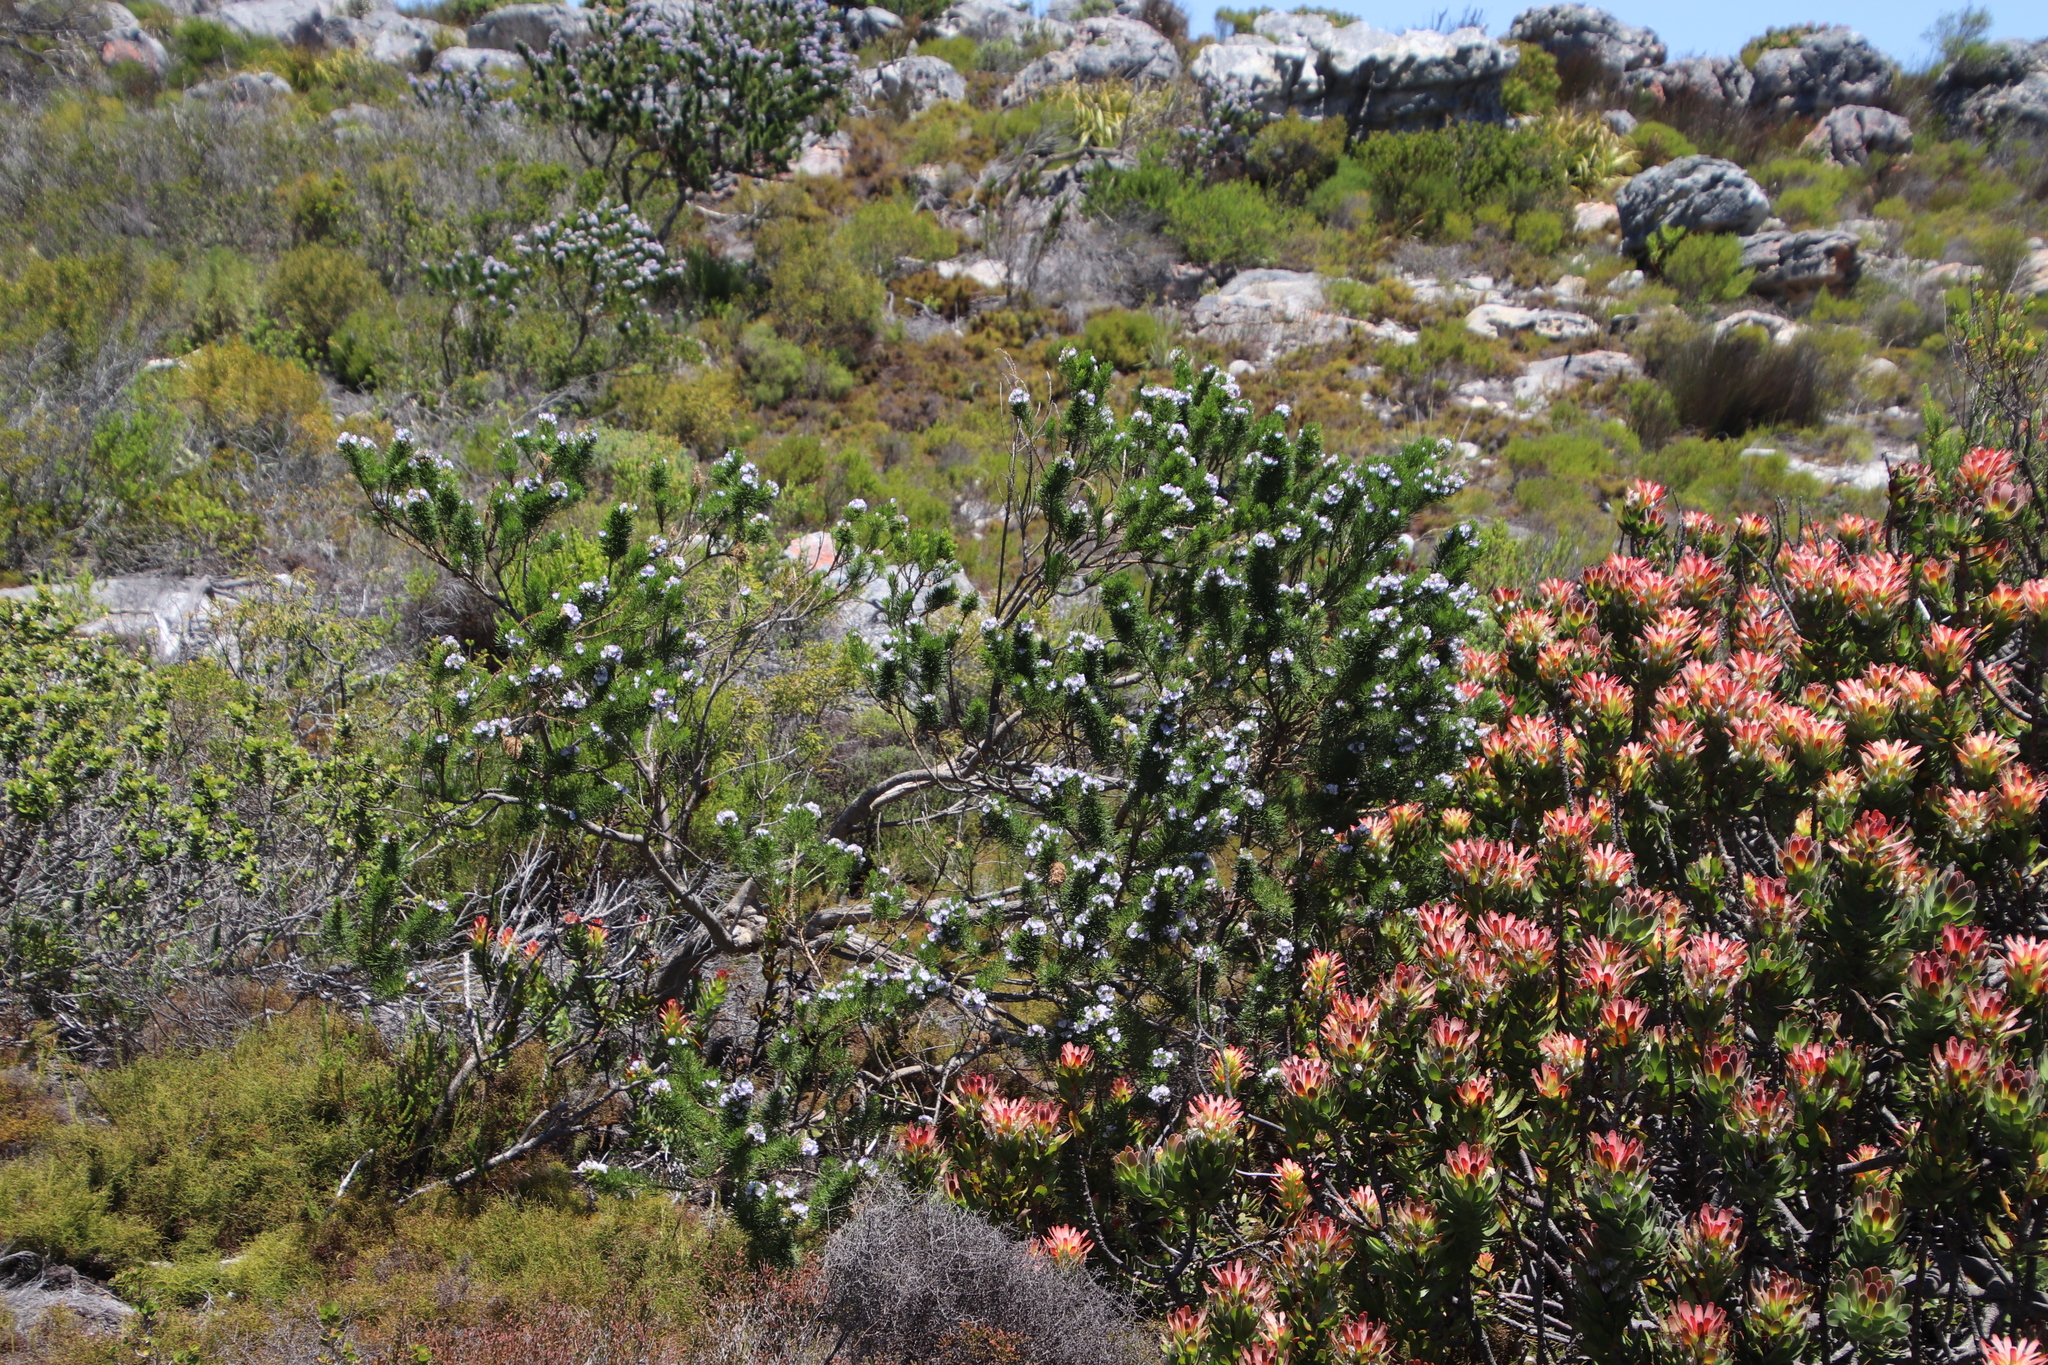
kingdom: Plantae
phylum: Tracheophyta
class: Magnoliopsida
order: Fabales
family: Fabaceae
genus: Psoralea
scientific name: Psoralea pinnata
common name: African scurfpea
